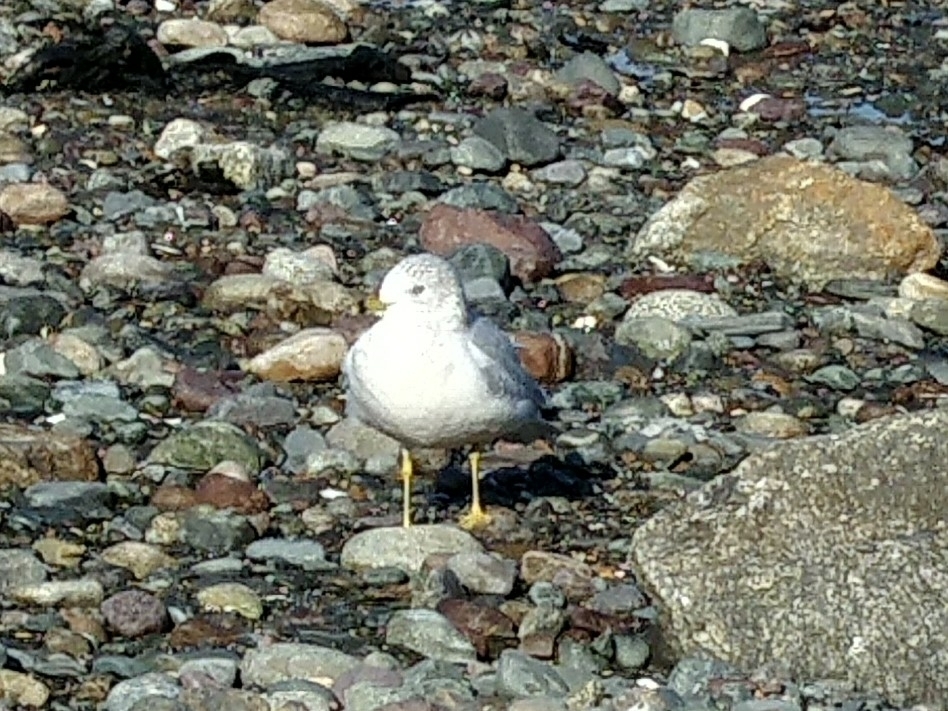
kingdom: Animalia
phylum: Chordata
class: Aves
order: Charadriiformes
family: Laridae
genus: Larus
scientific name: Larus delawarensis
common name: Ring-billed gull
